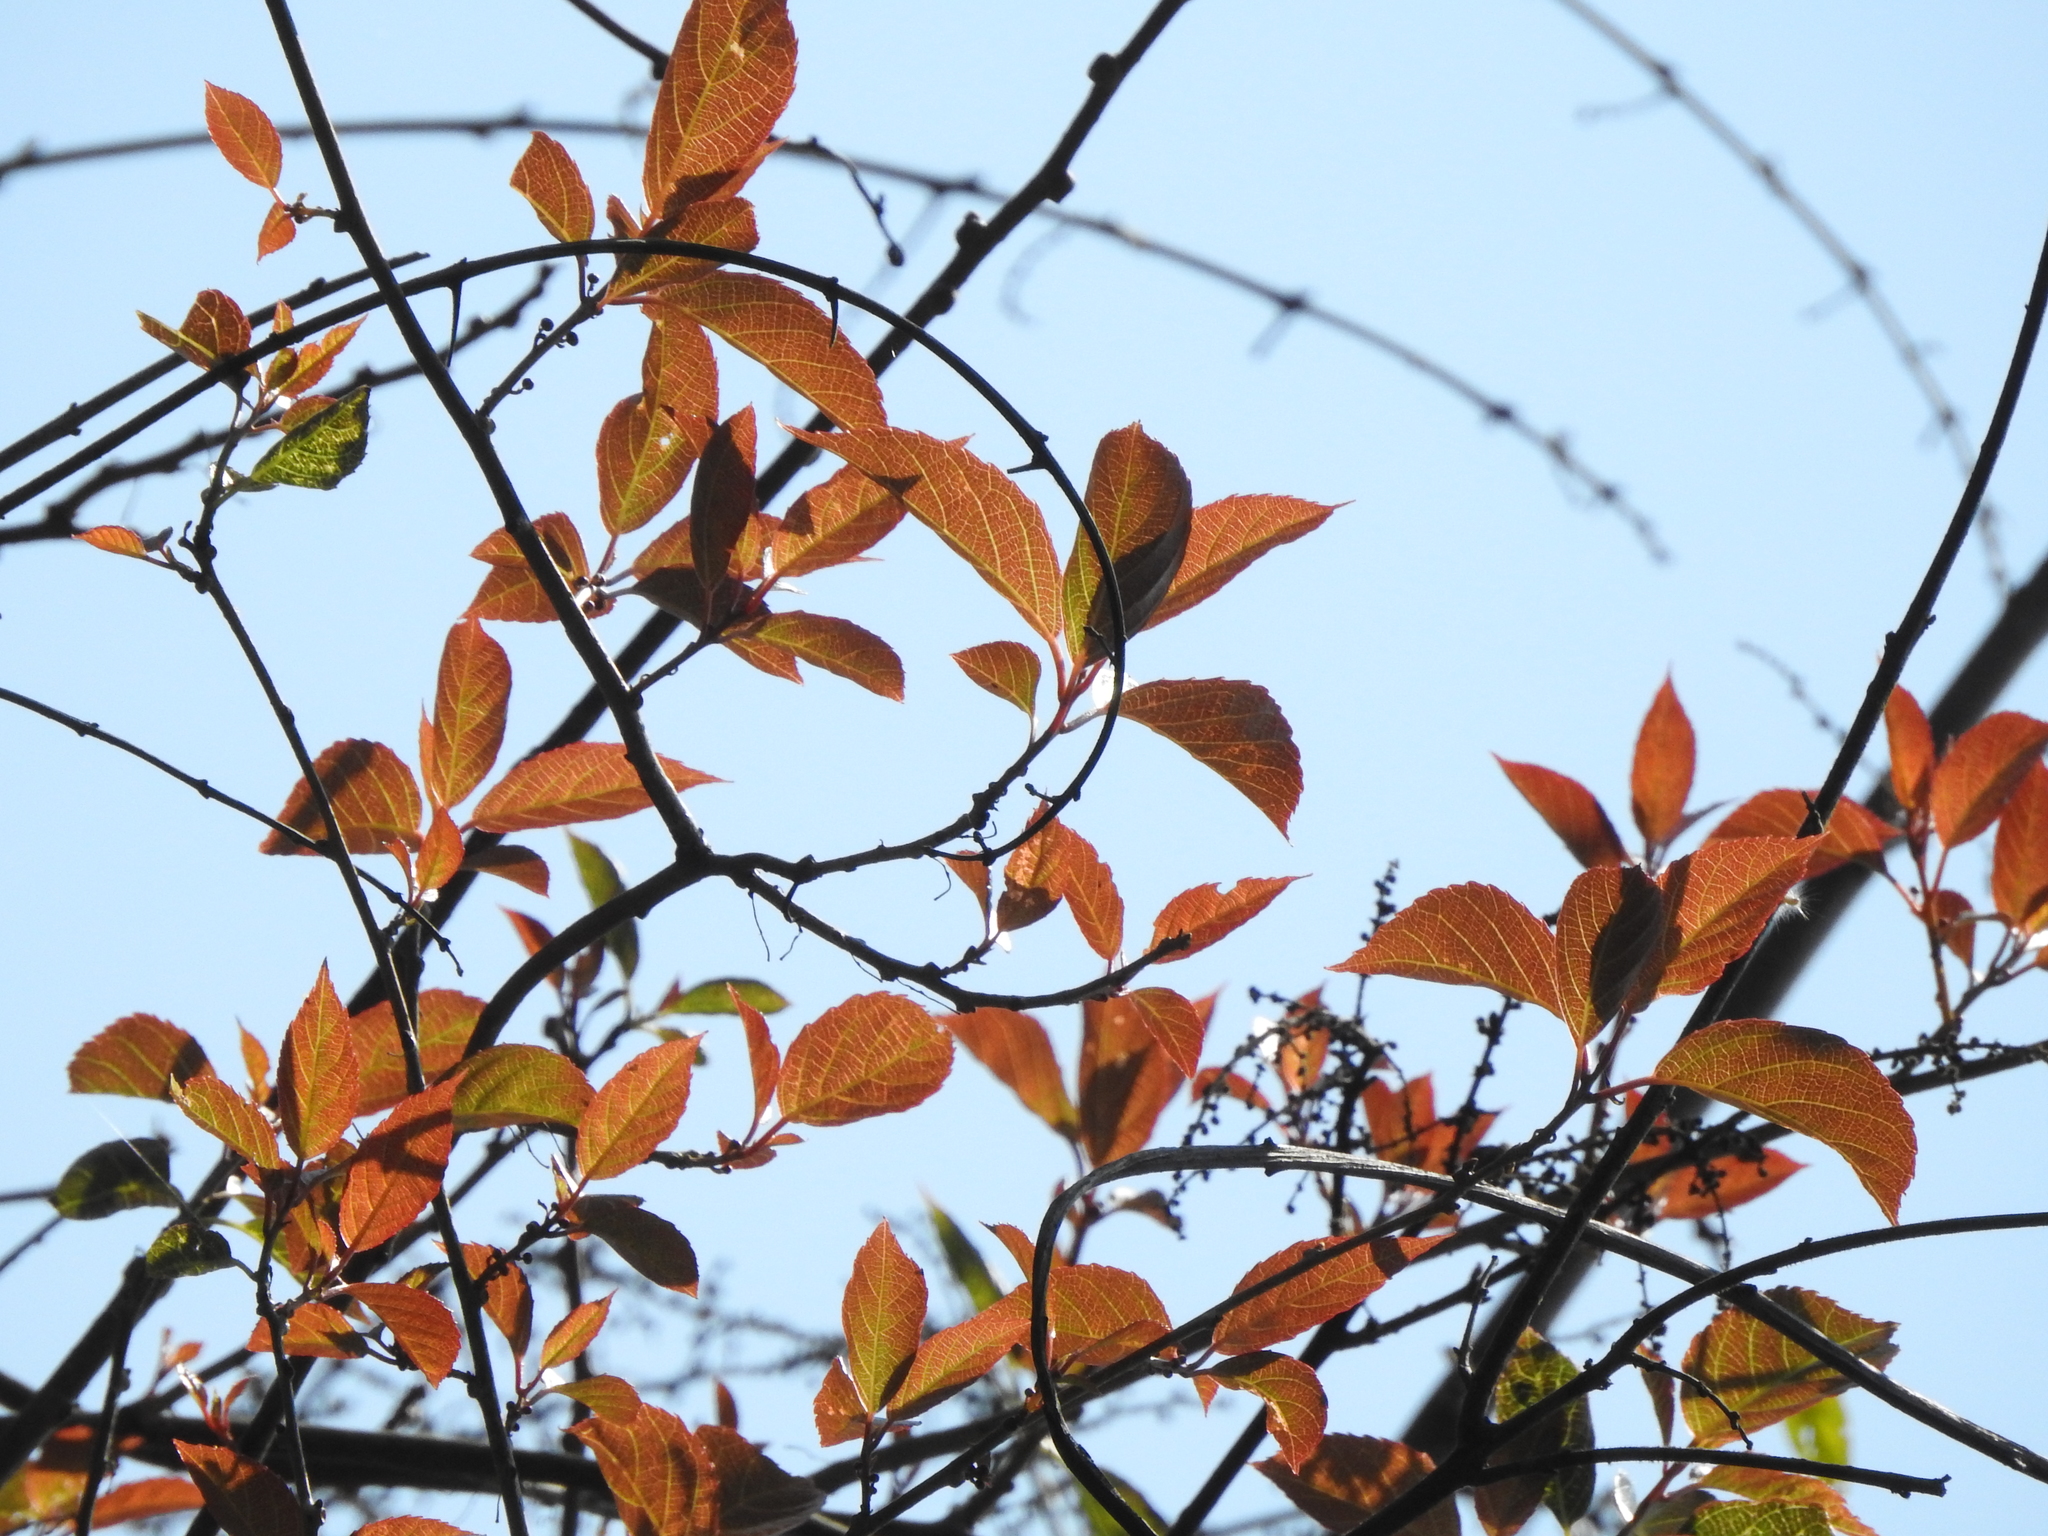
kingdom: Plantae
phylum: Tracheophyta
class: Magnoliopsida
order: Ericales
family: Actinidiaceae
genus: Actinidia
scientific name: Actinidia rufa
